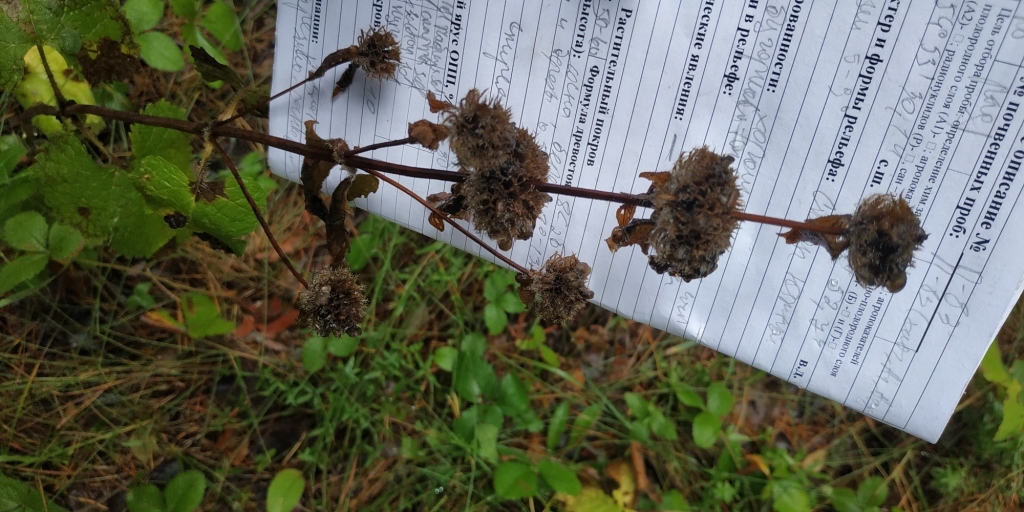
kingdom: Plantae
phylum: Tracheophyta
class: Magnoliopsida
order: Lamiales
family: Lamiaceae
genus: Phlomoides
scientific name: Phlomoides tuberosa
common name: Tuberous jerusalem sage
